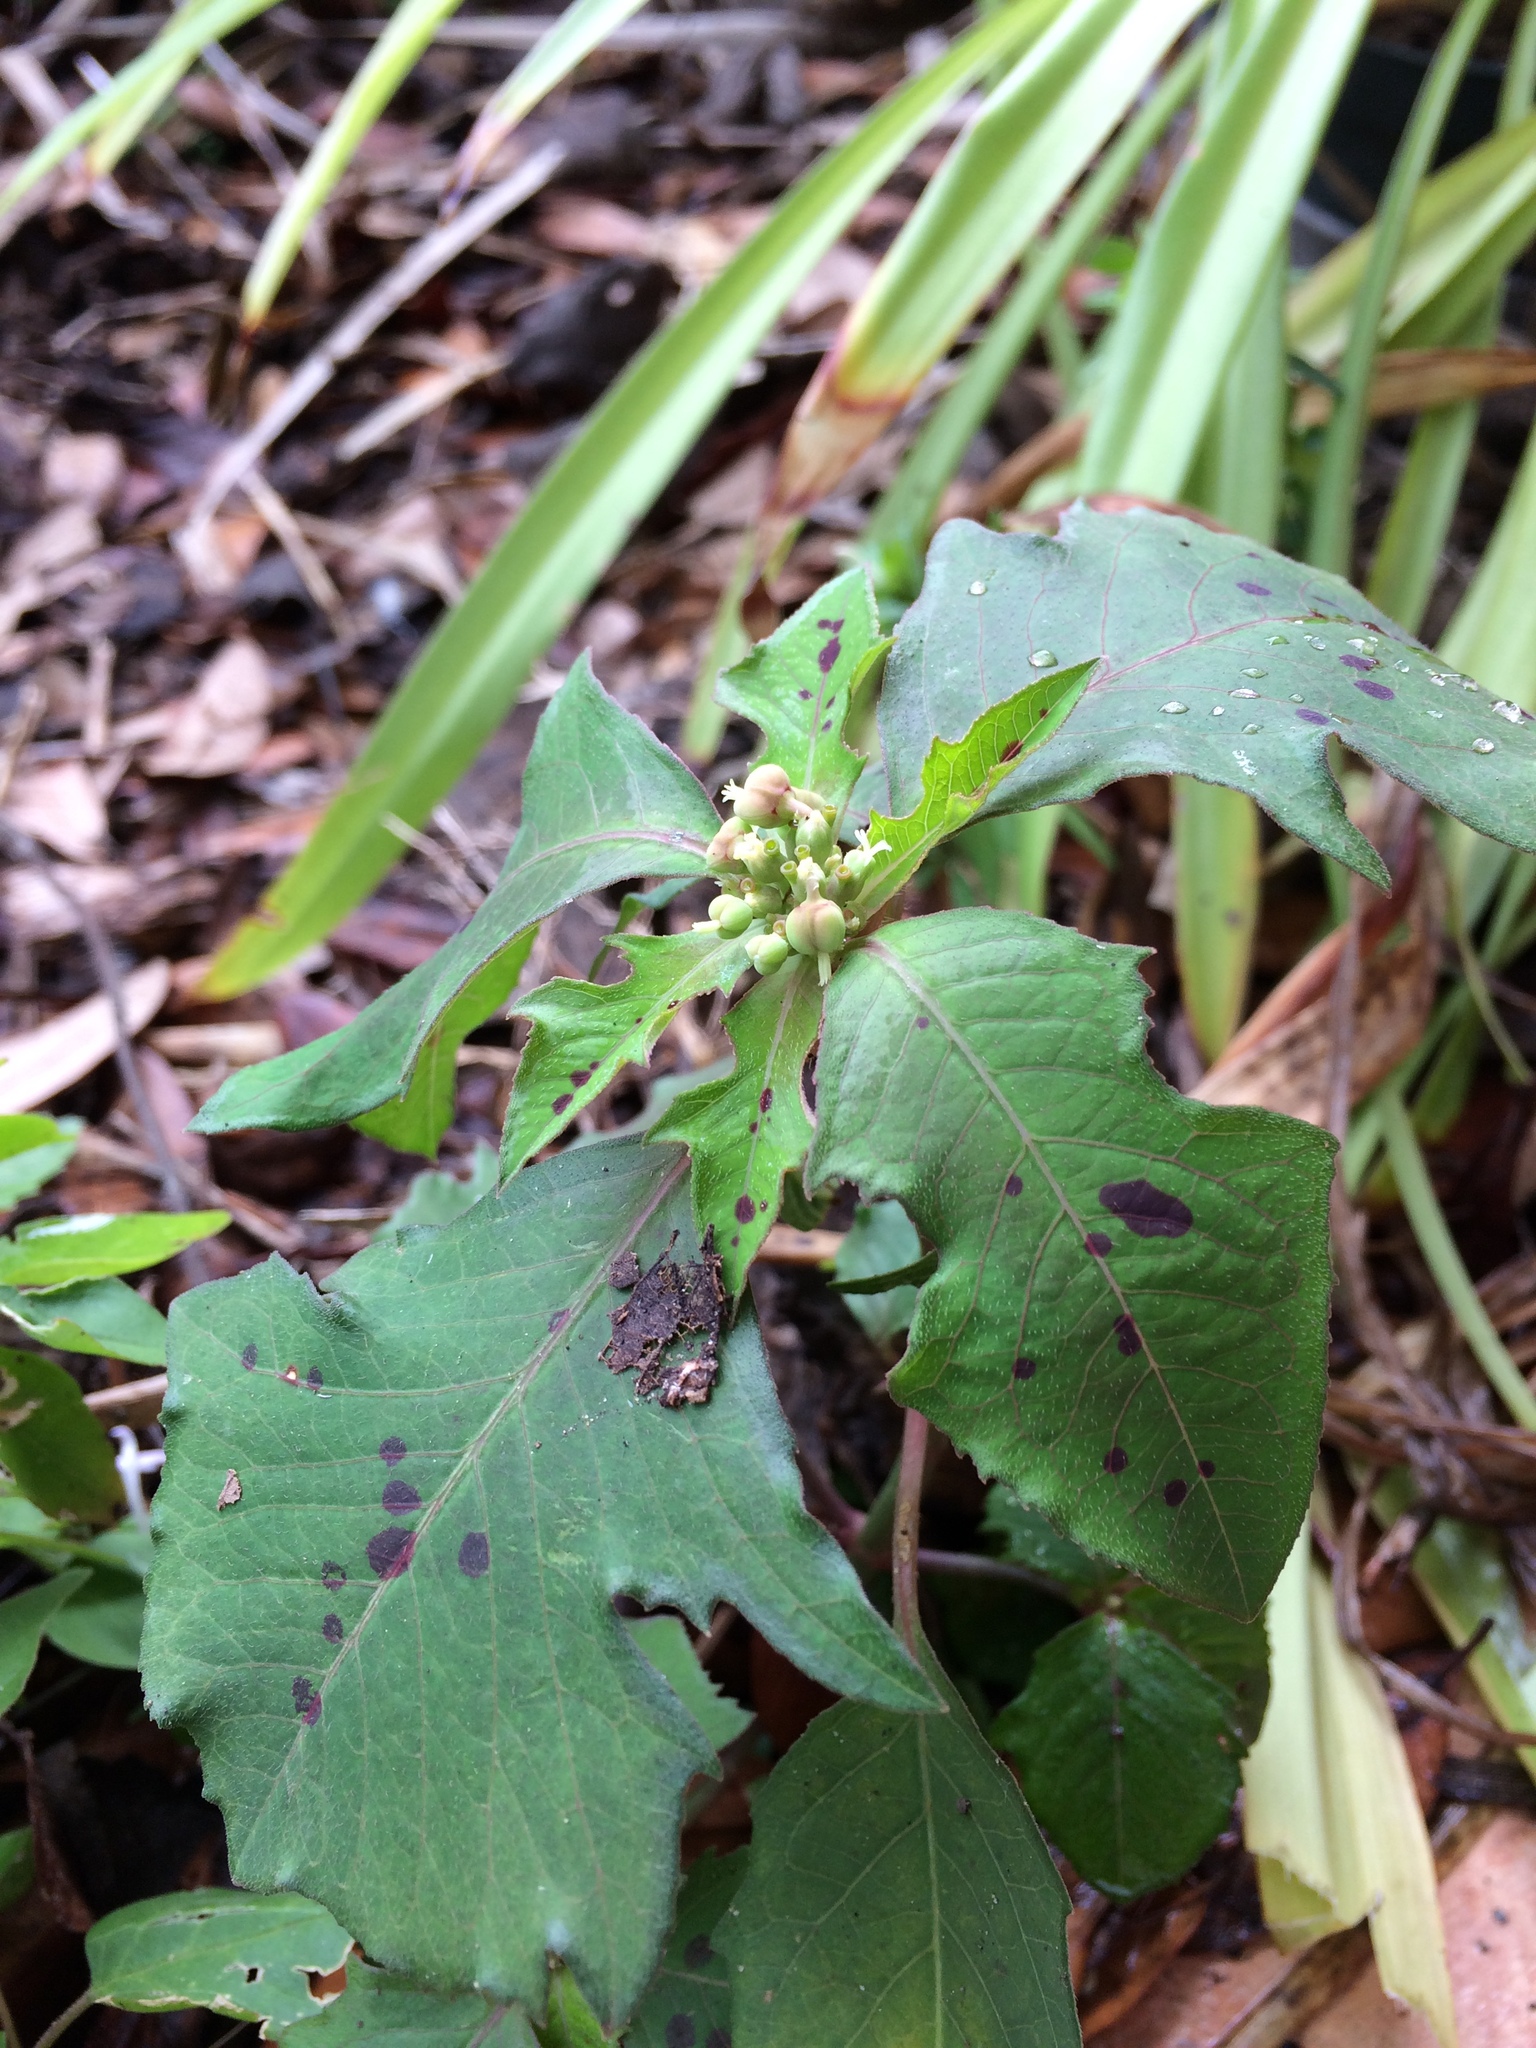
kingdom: Plantae
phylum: Tracheophyta
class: Magnoliopsida
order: Malpighiales
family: Euphorbiaceae
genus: Euphorbia
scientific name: Euphorbia heterophylla
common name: Mexican fireplant
